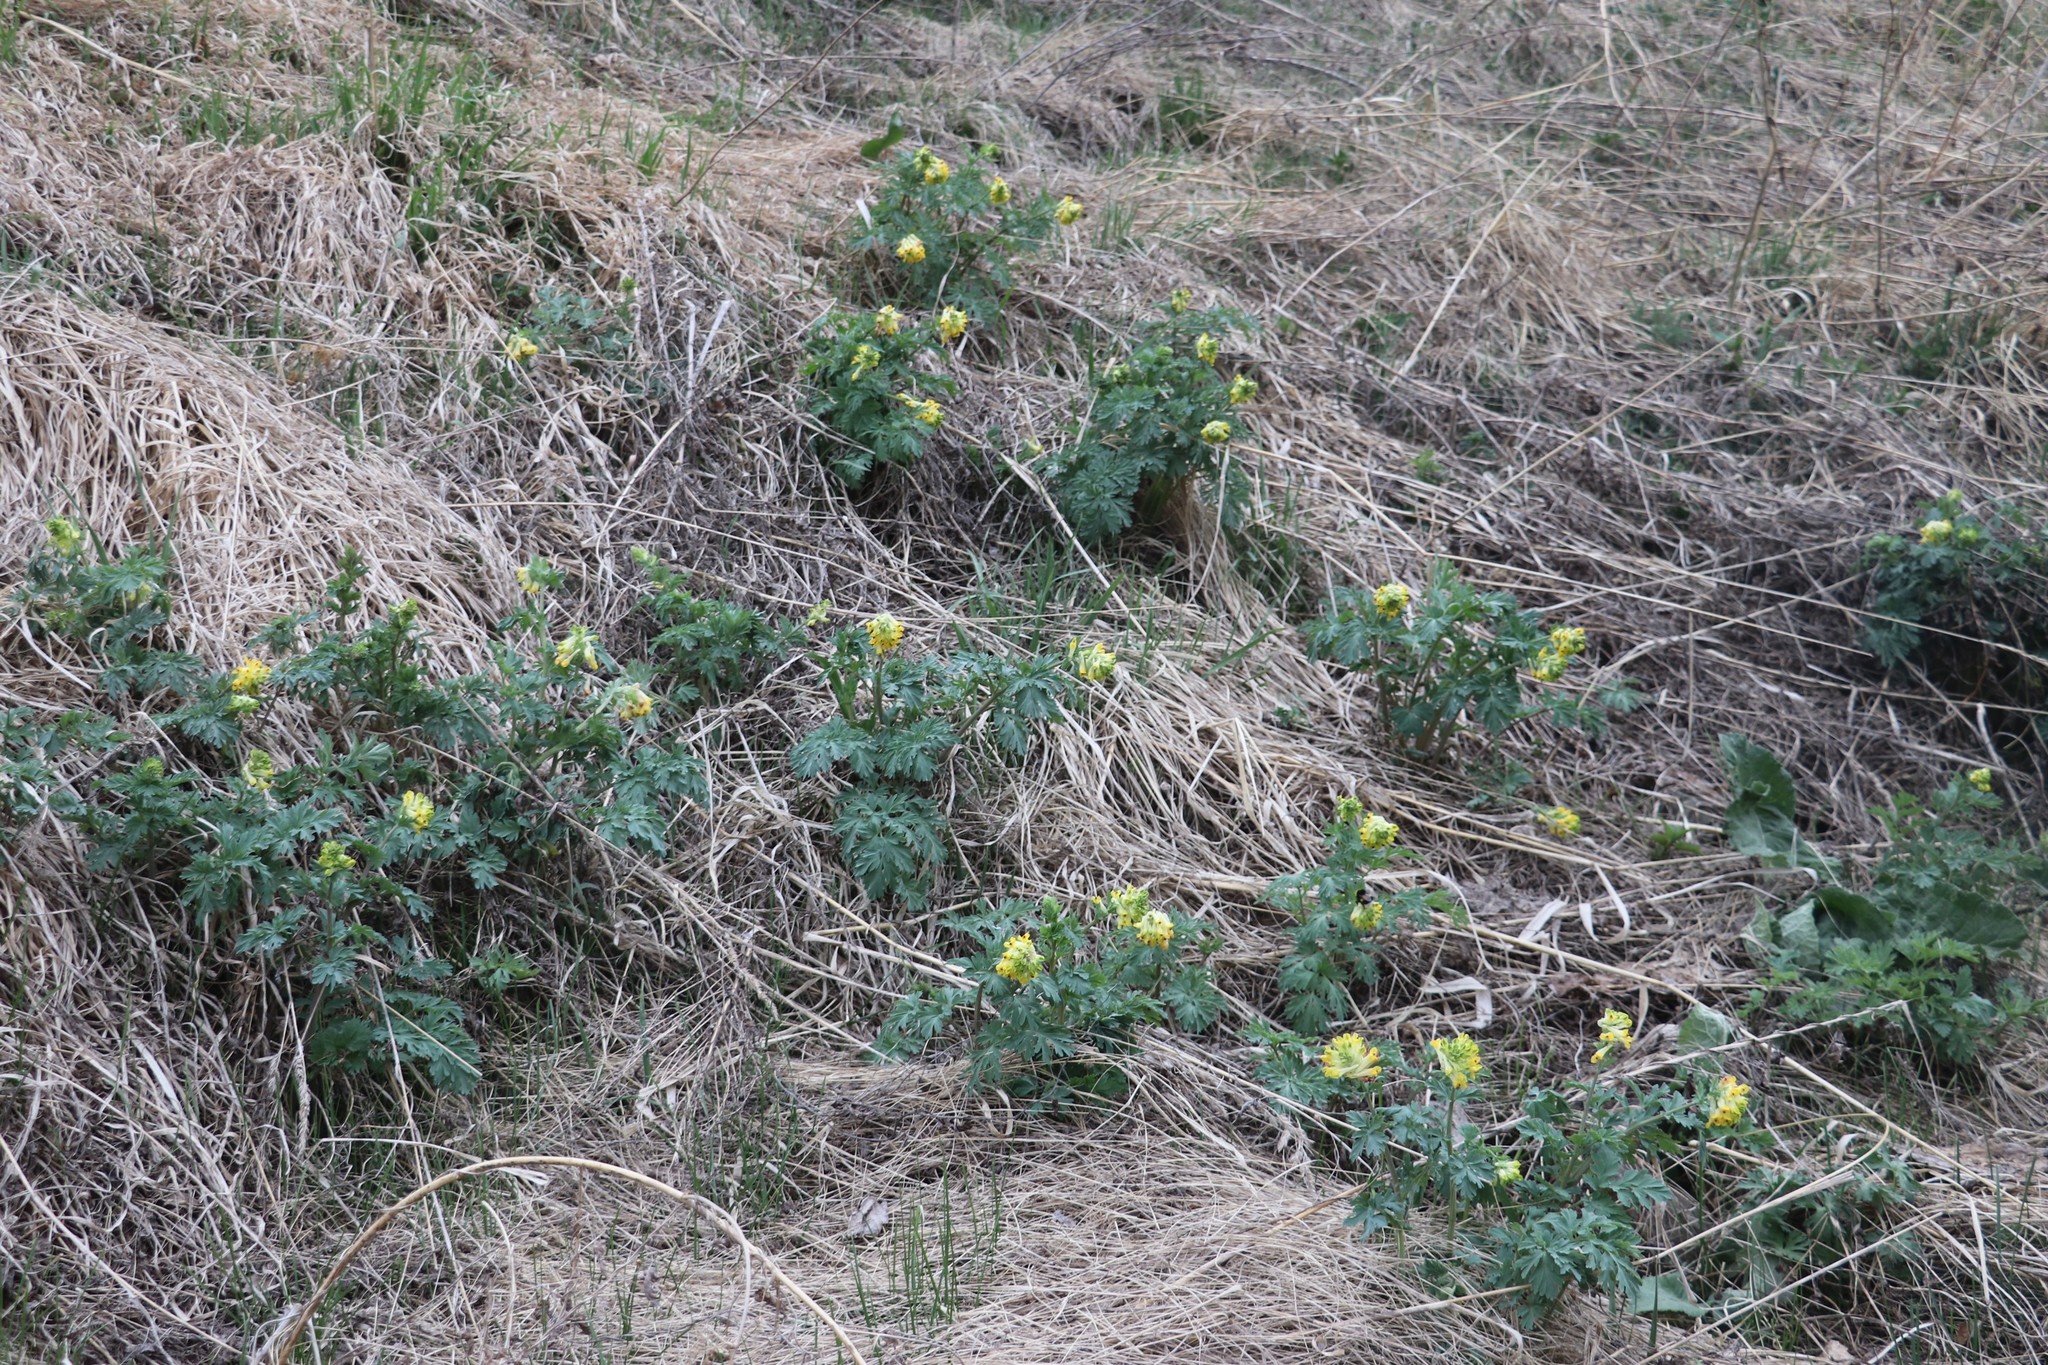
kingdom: Plantae
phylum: Tracheophyta
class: Magnoliopsida
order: Ranunculales
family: Papaveraceae
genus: Corydalis
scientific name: Corydalis nobilis
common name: Siberian corydalis
